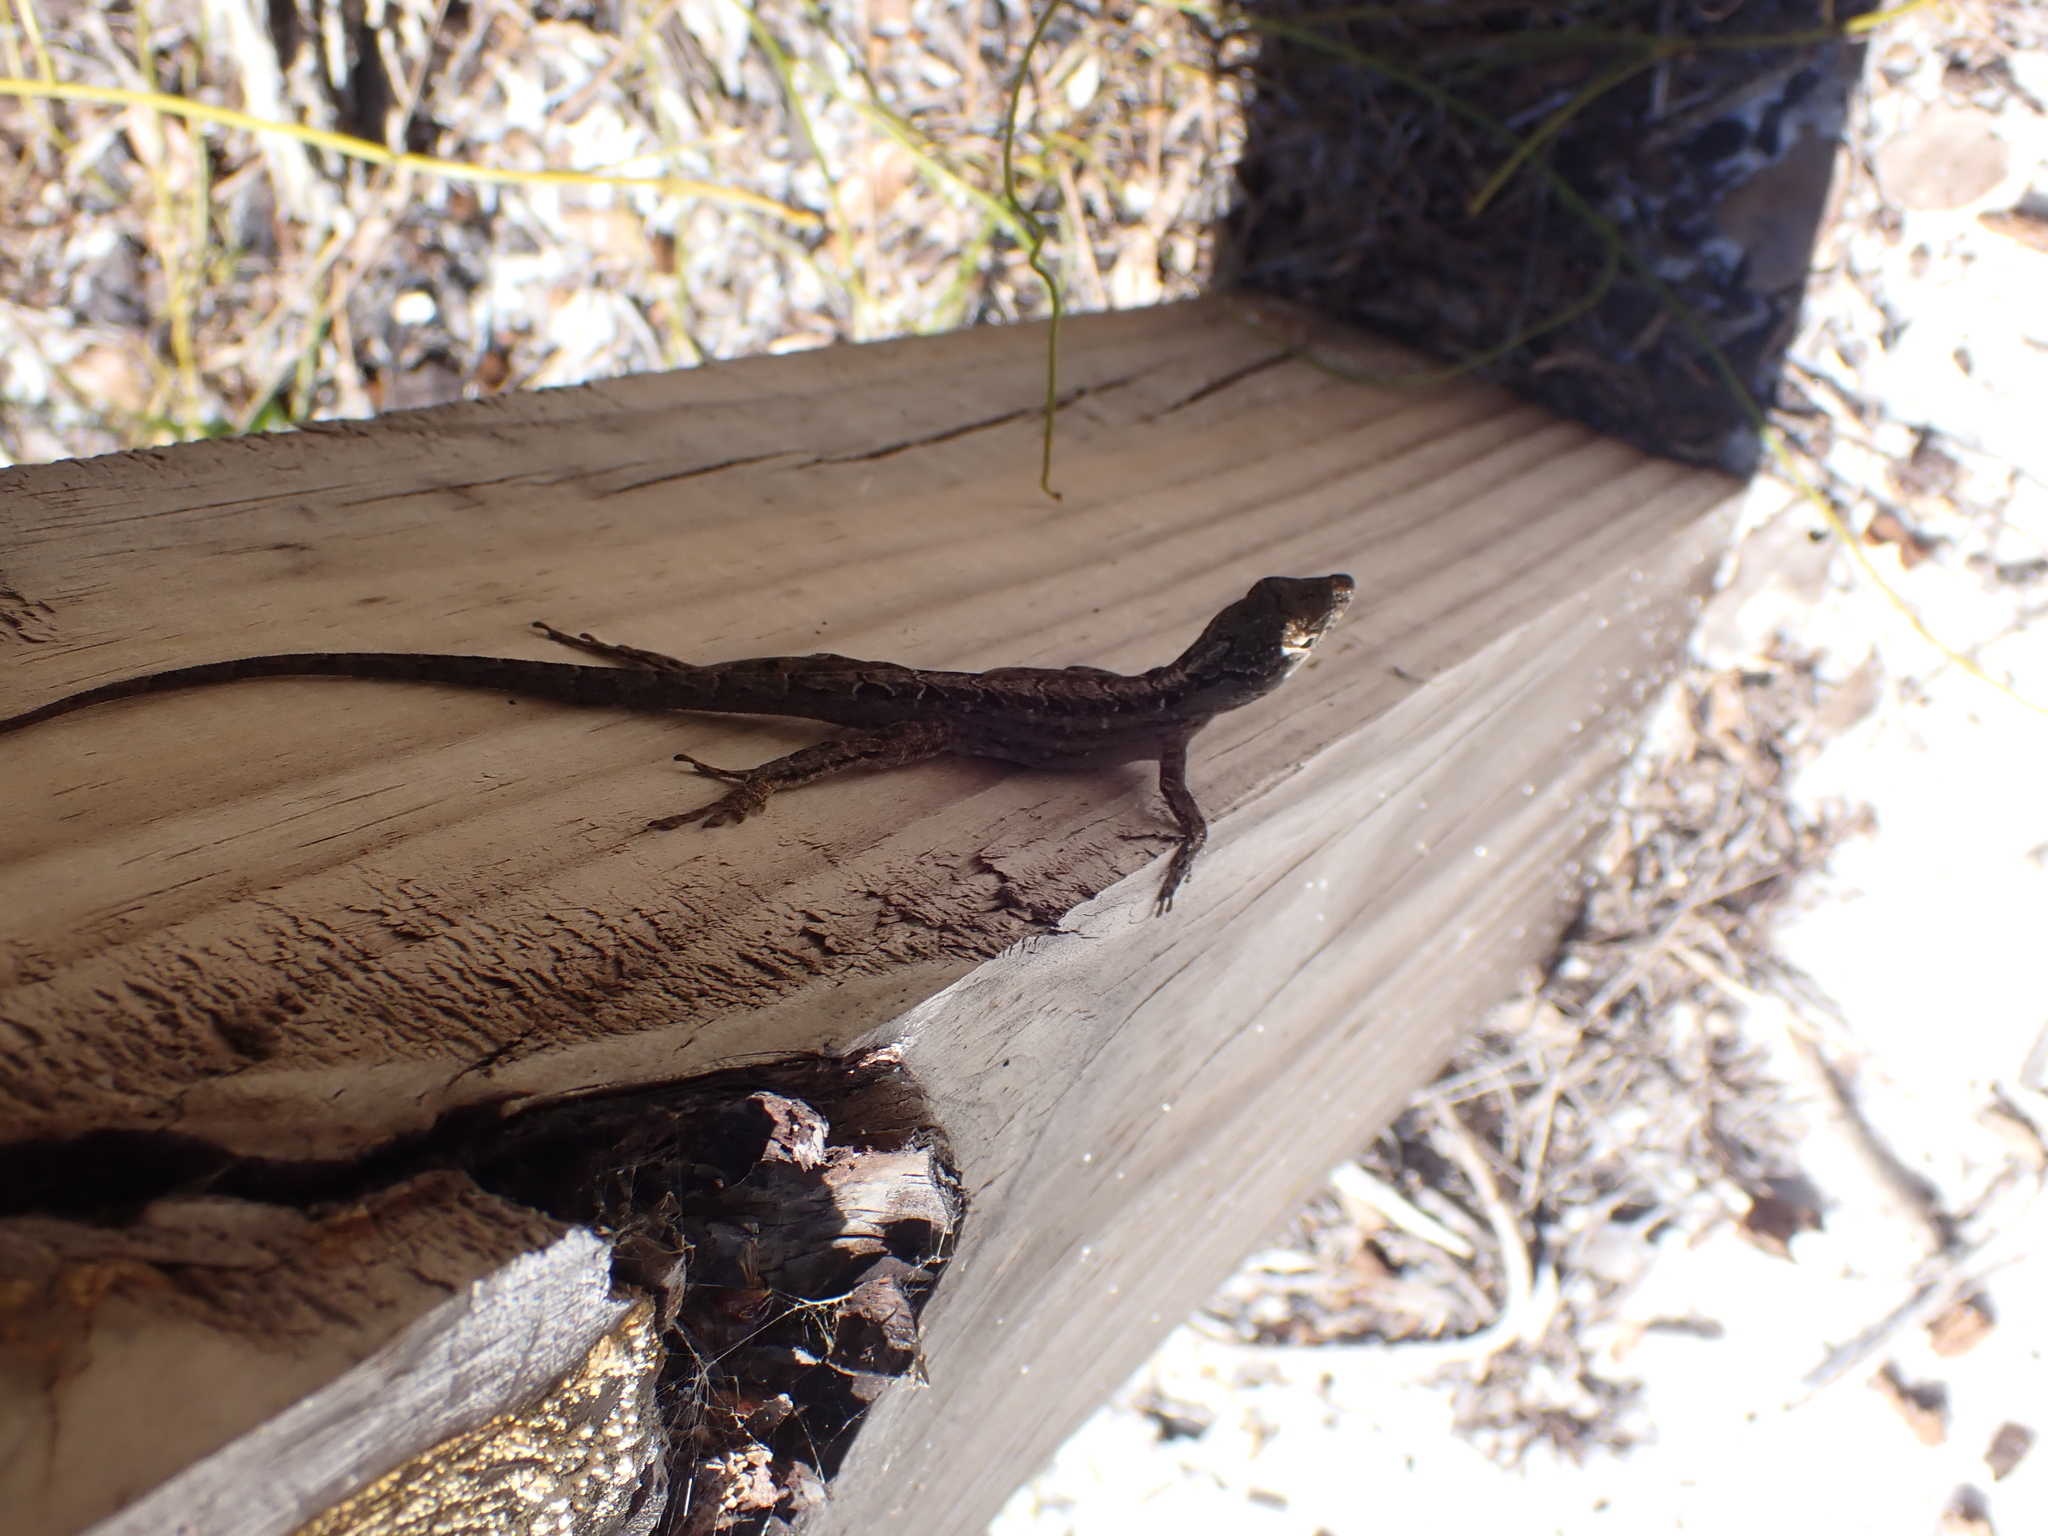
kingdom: Animalia
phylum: Chordata
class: Squamata
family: Dactyloidae
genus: Anolis
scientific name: Anolis sagrei
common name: Brown anole
